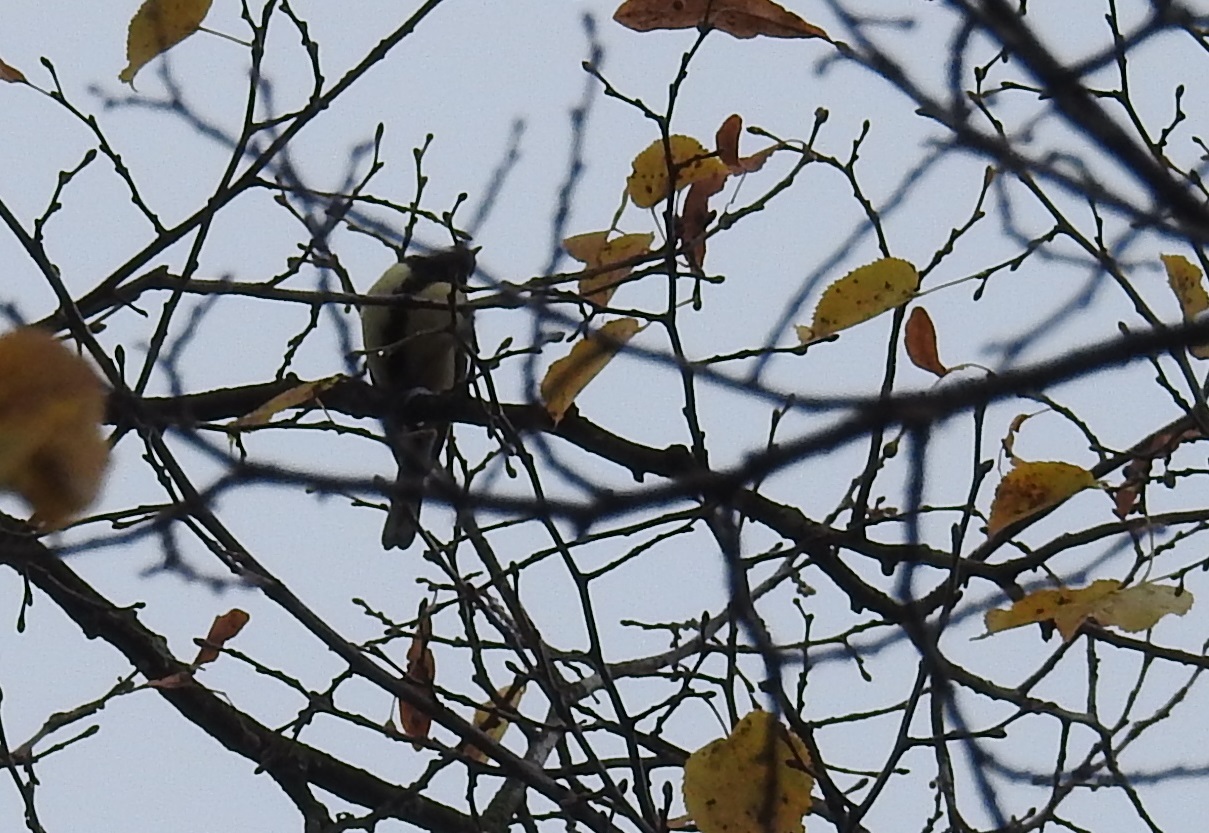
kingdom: Animalia
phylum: Chordata
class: Aves
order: Passeriformes
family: Paridae
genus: Parus
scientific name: Parus major
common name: Great tit
